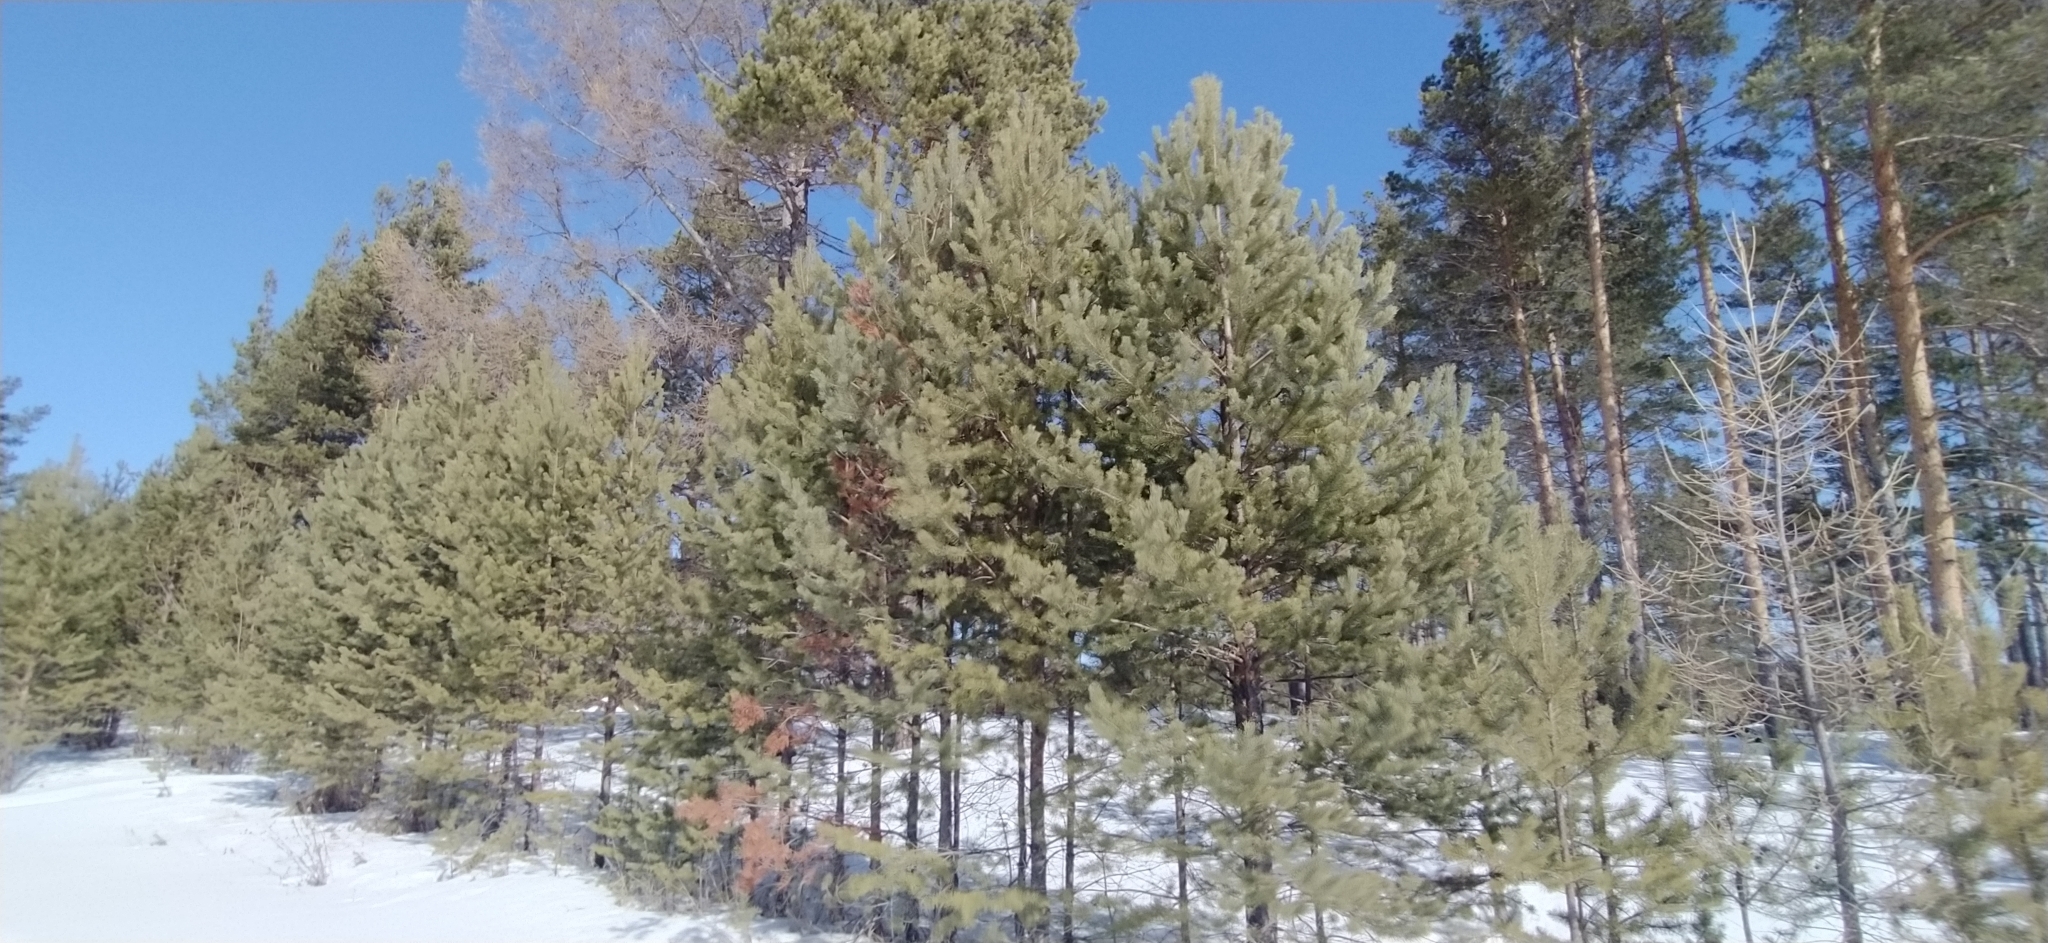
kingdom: Plantae
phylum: Tracheophyta
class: Pinopsida
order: Pinales
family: Pinaceae
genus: Pinus
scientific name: Pinus sylvestris
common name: Scots pine
